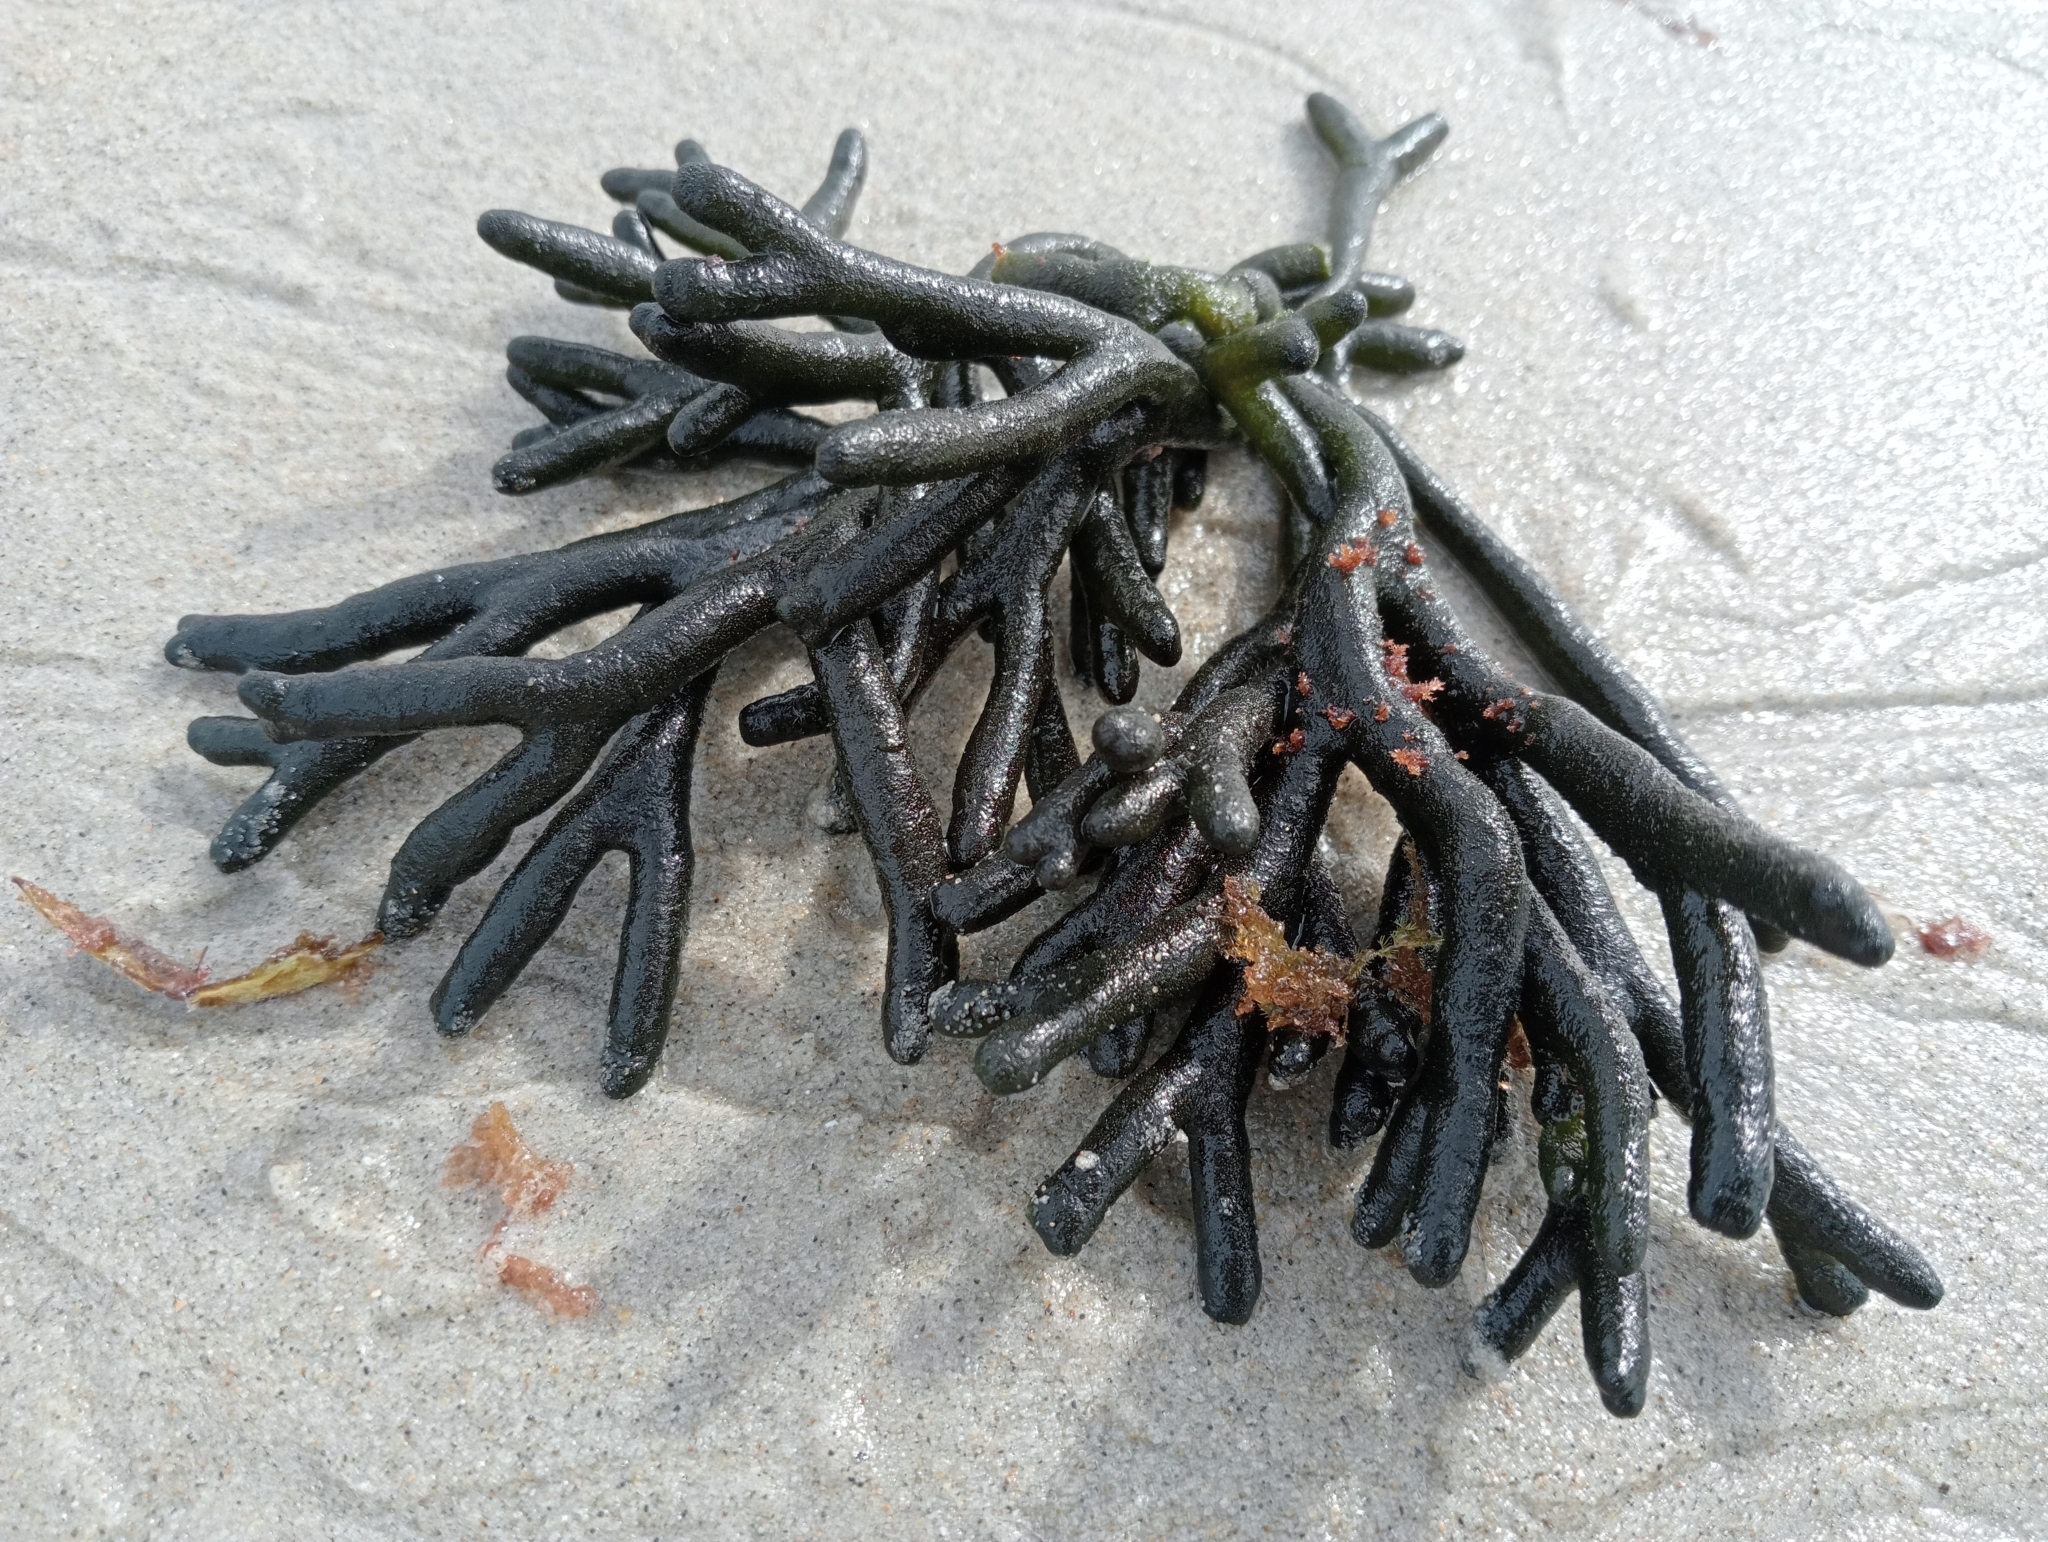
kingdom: Plantae
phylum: Chlorophyta
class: Ulvophyceae
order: Bryopsidales
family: Codiaceae
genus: Codium
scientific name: Codium fragile
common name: Dead man's fingers
